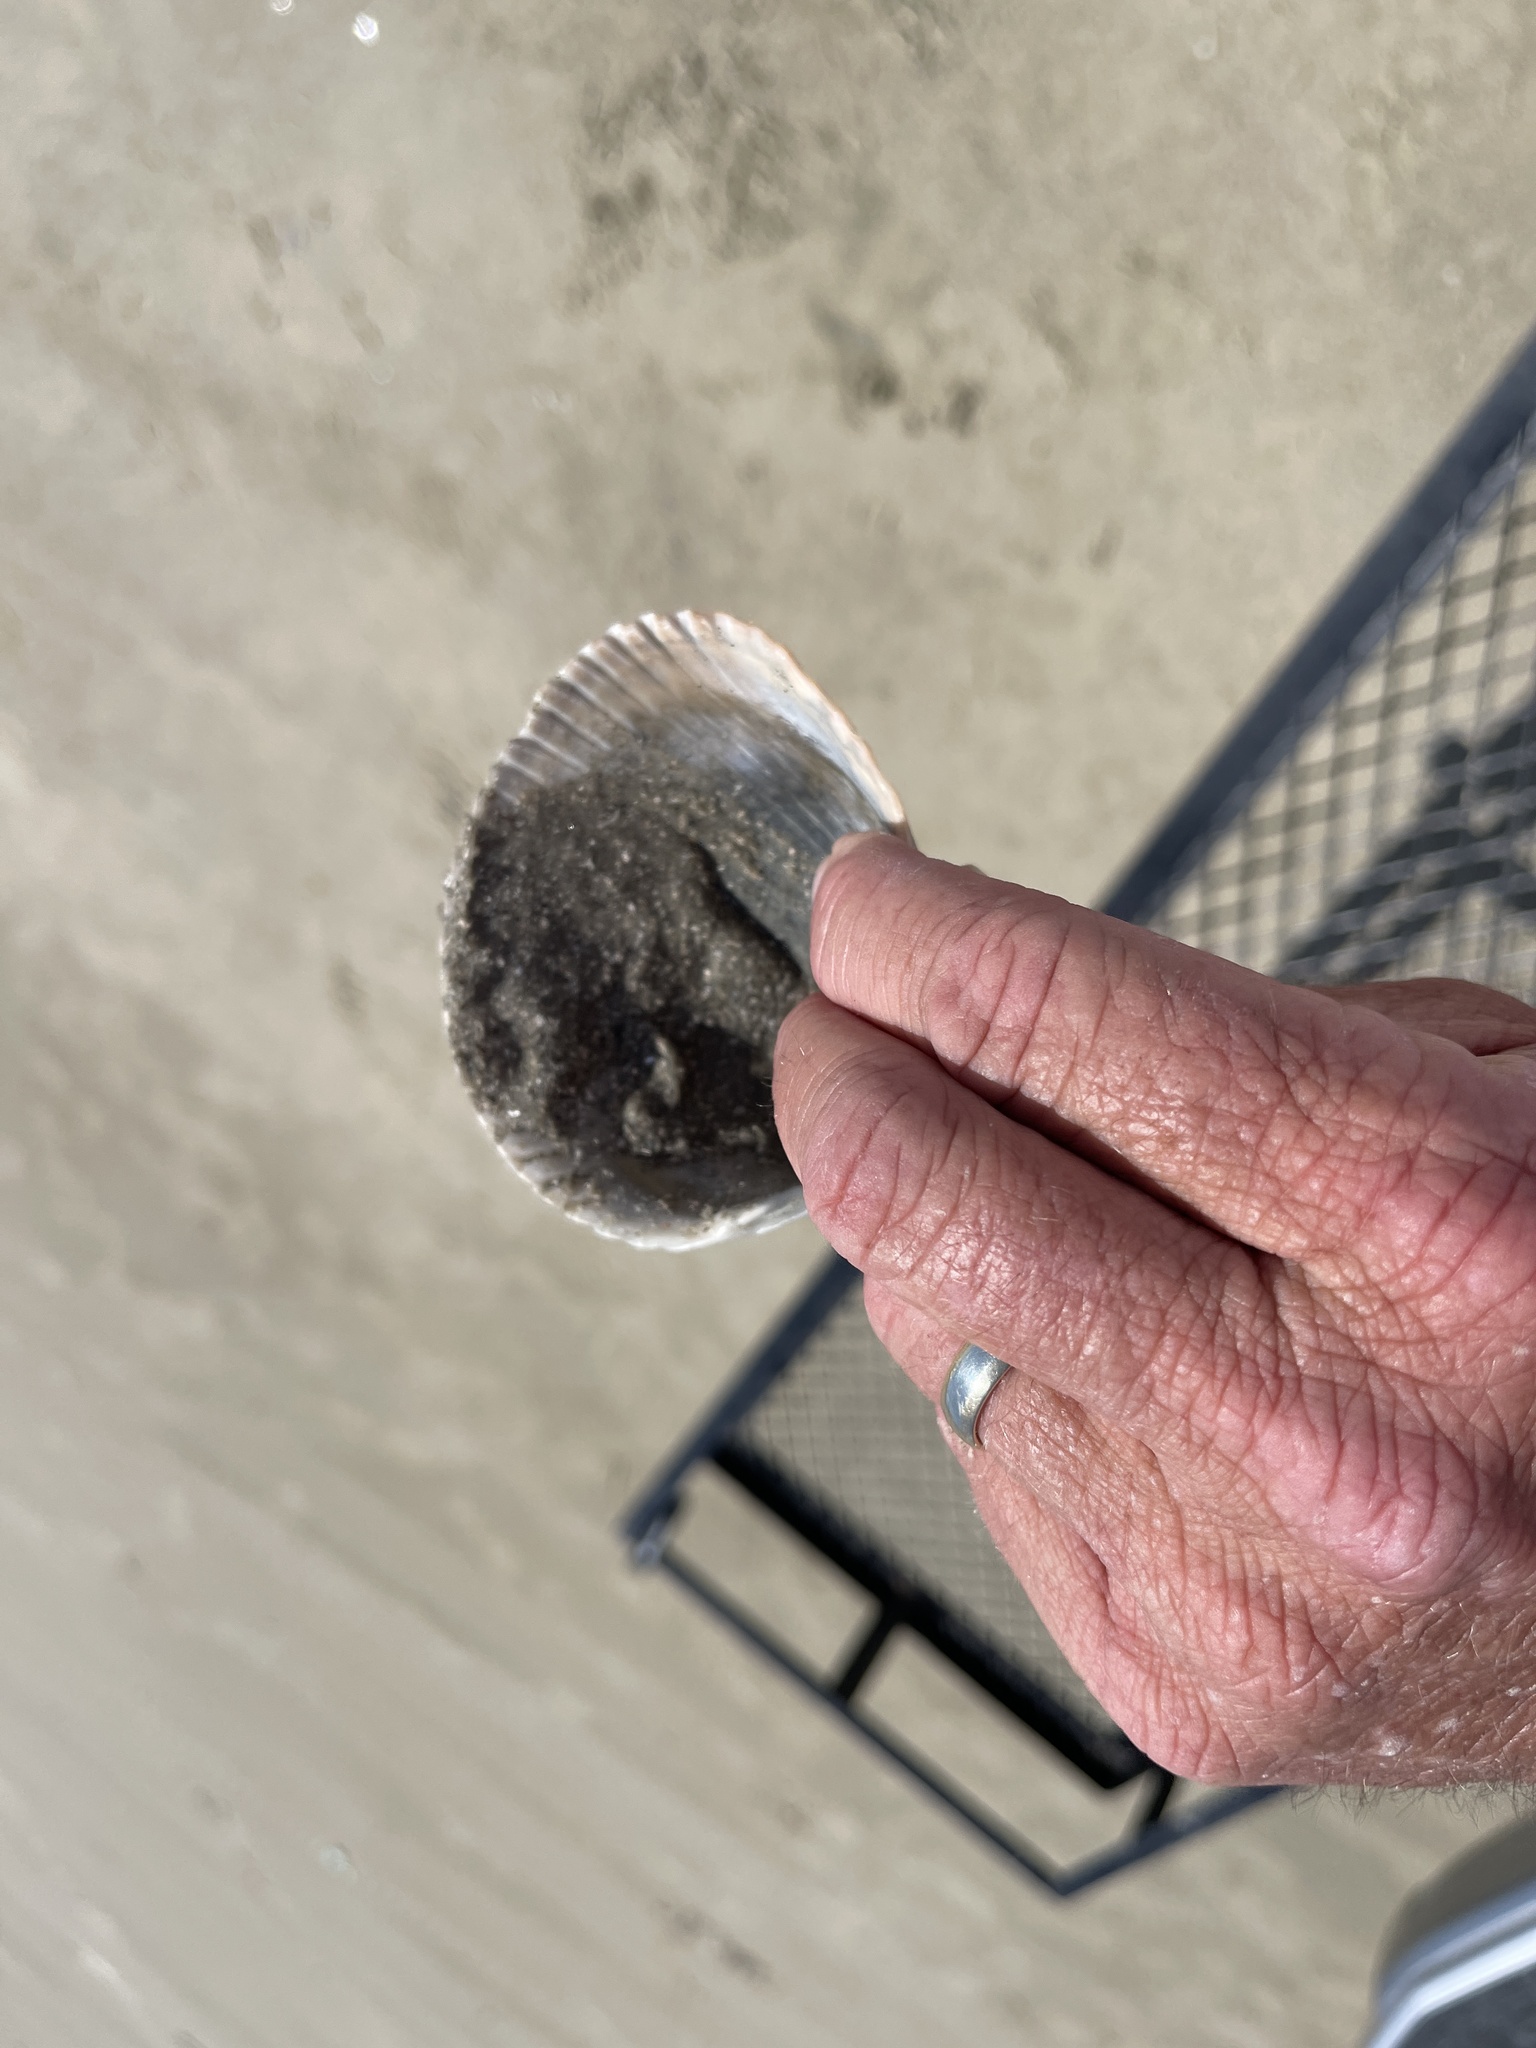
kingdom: Animalia
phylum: Mollusca
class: Bivalvia
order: Cardiida
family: Cardiidae
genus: Dinocardium
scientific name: Dinocardium robustum
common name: Atlantic giant cockle
